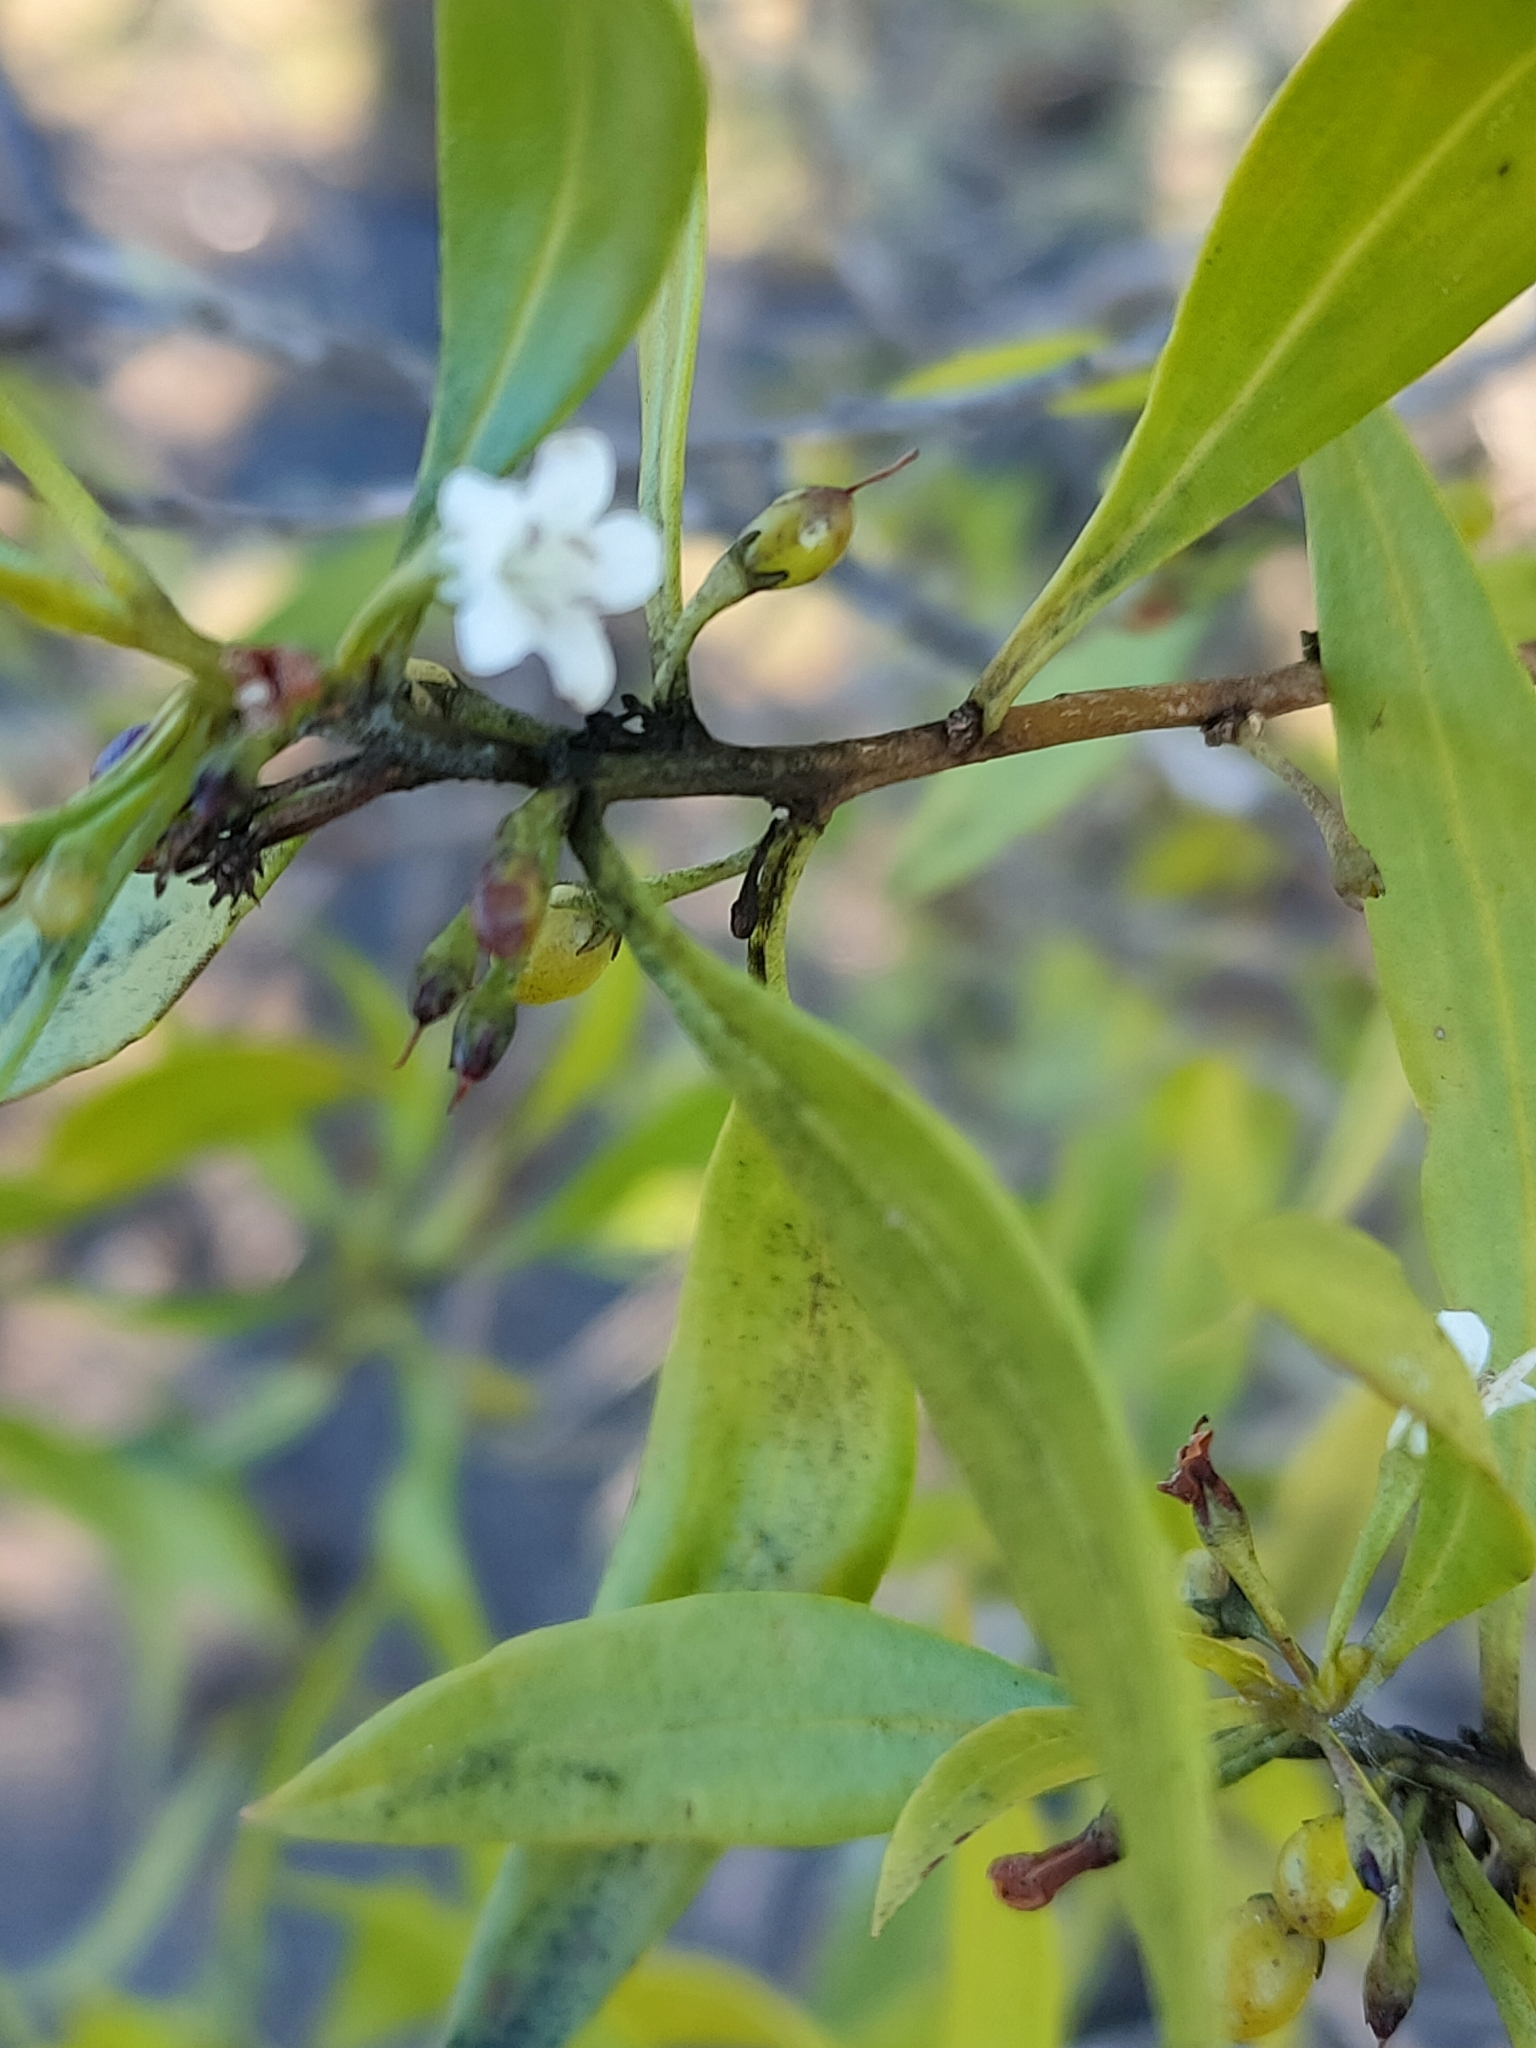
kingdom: Plantae
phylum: Tracheophyta
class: Magnoliopsida
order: Lamiales
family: Scrophulariaceae
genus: Myoporum
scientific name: Myoporum acuminatum
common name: Pointed boobialla
